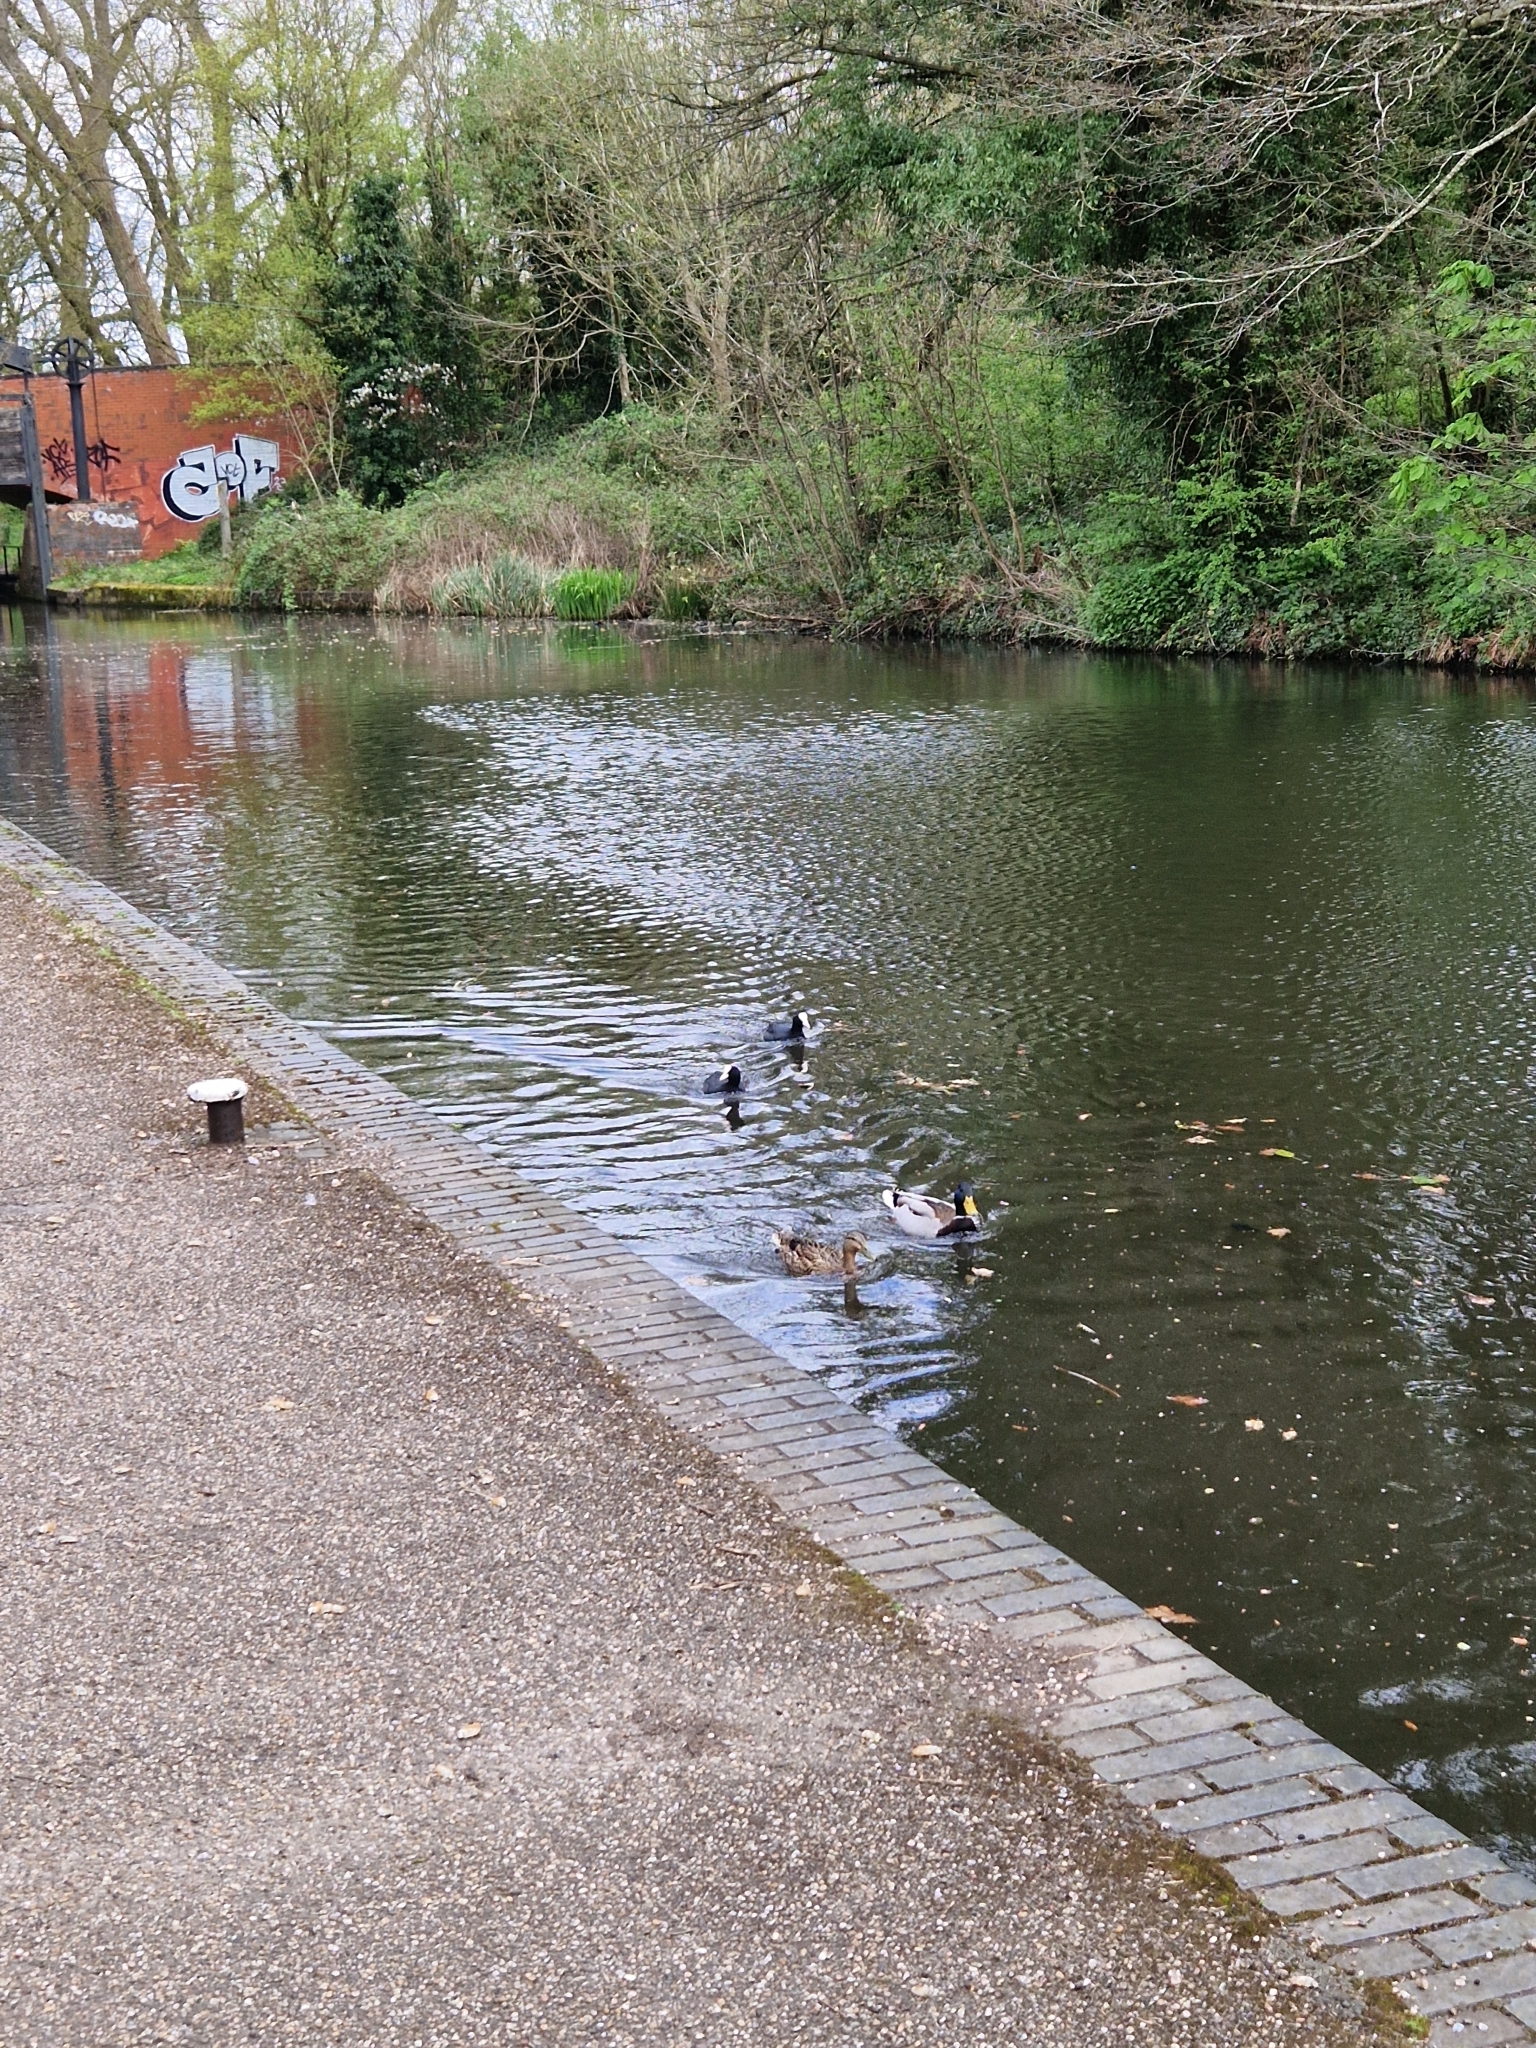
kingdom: Animalia
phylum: Chordata
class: Aves
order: Gruiformes
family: Rallidae
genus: Fulica
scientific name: Fulica atra
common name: Eurasian coot
